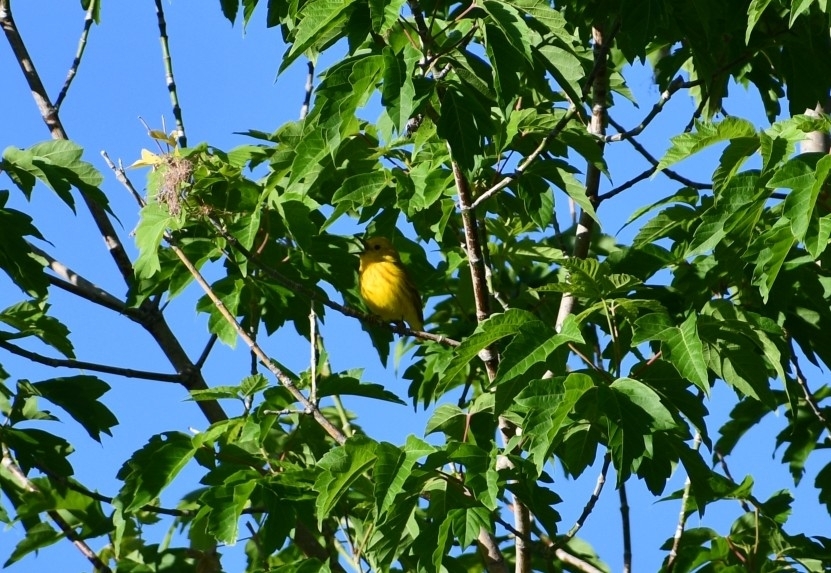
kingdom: Animalia
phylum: Chordata
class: Aves
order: Passeriformes
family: Parulidae
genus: Setophaga
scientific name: Setophaga petechia
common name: Yellow warbler
